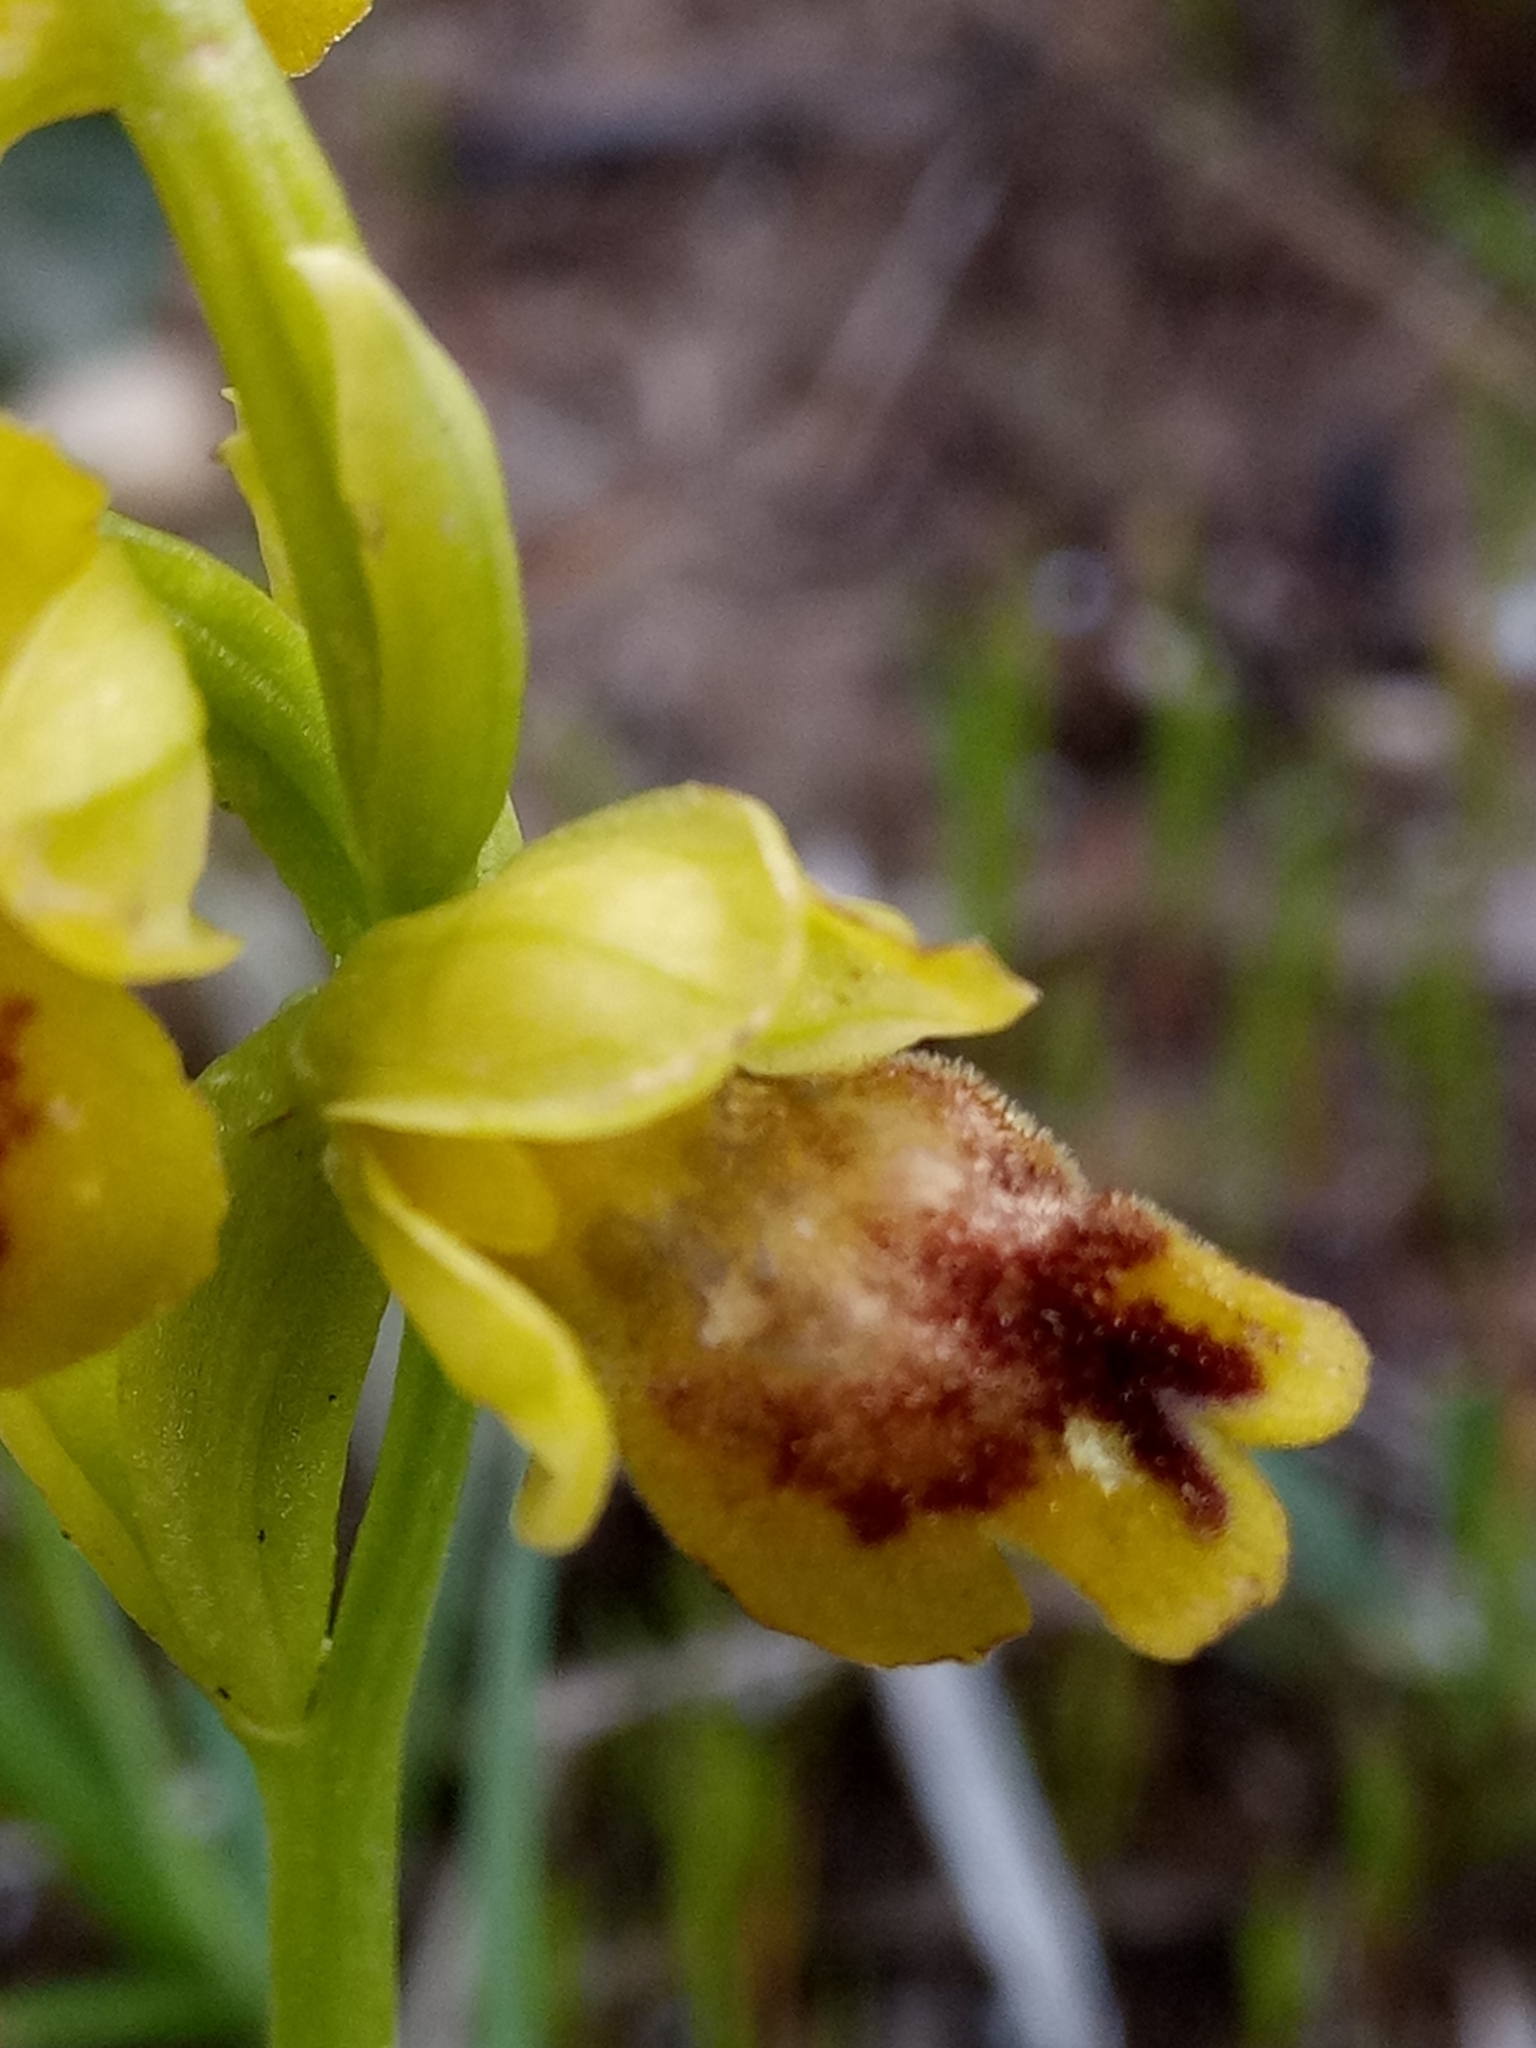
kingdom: Plantae
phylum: Tracheophyta
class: Liliopsida
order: Asparagales
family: Orchidaceae
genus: Ophrys
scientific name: Ophrys battandieri
